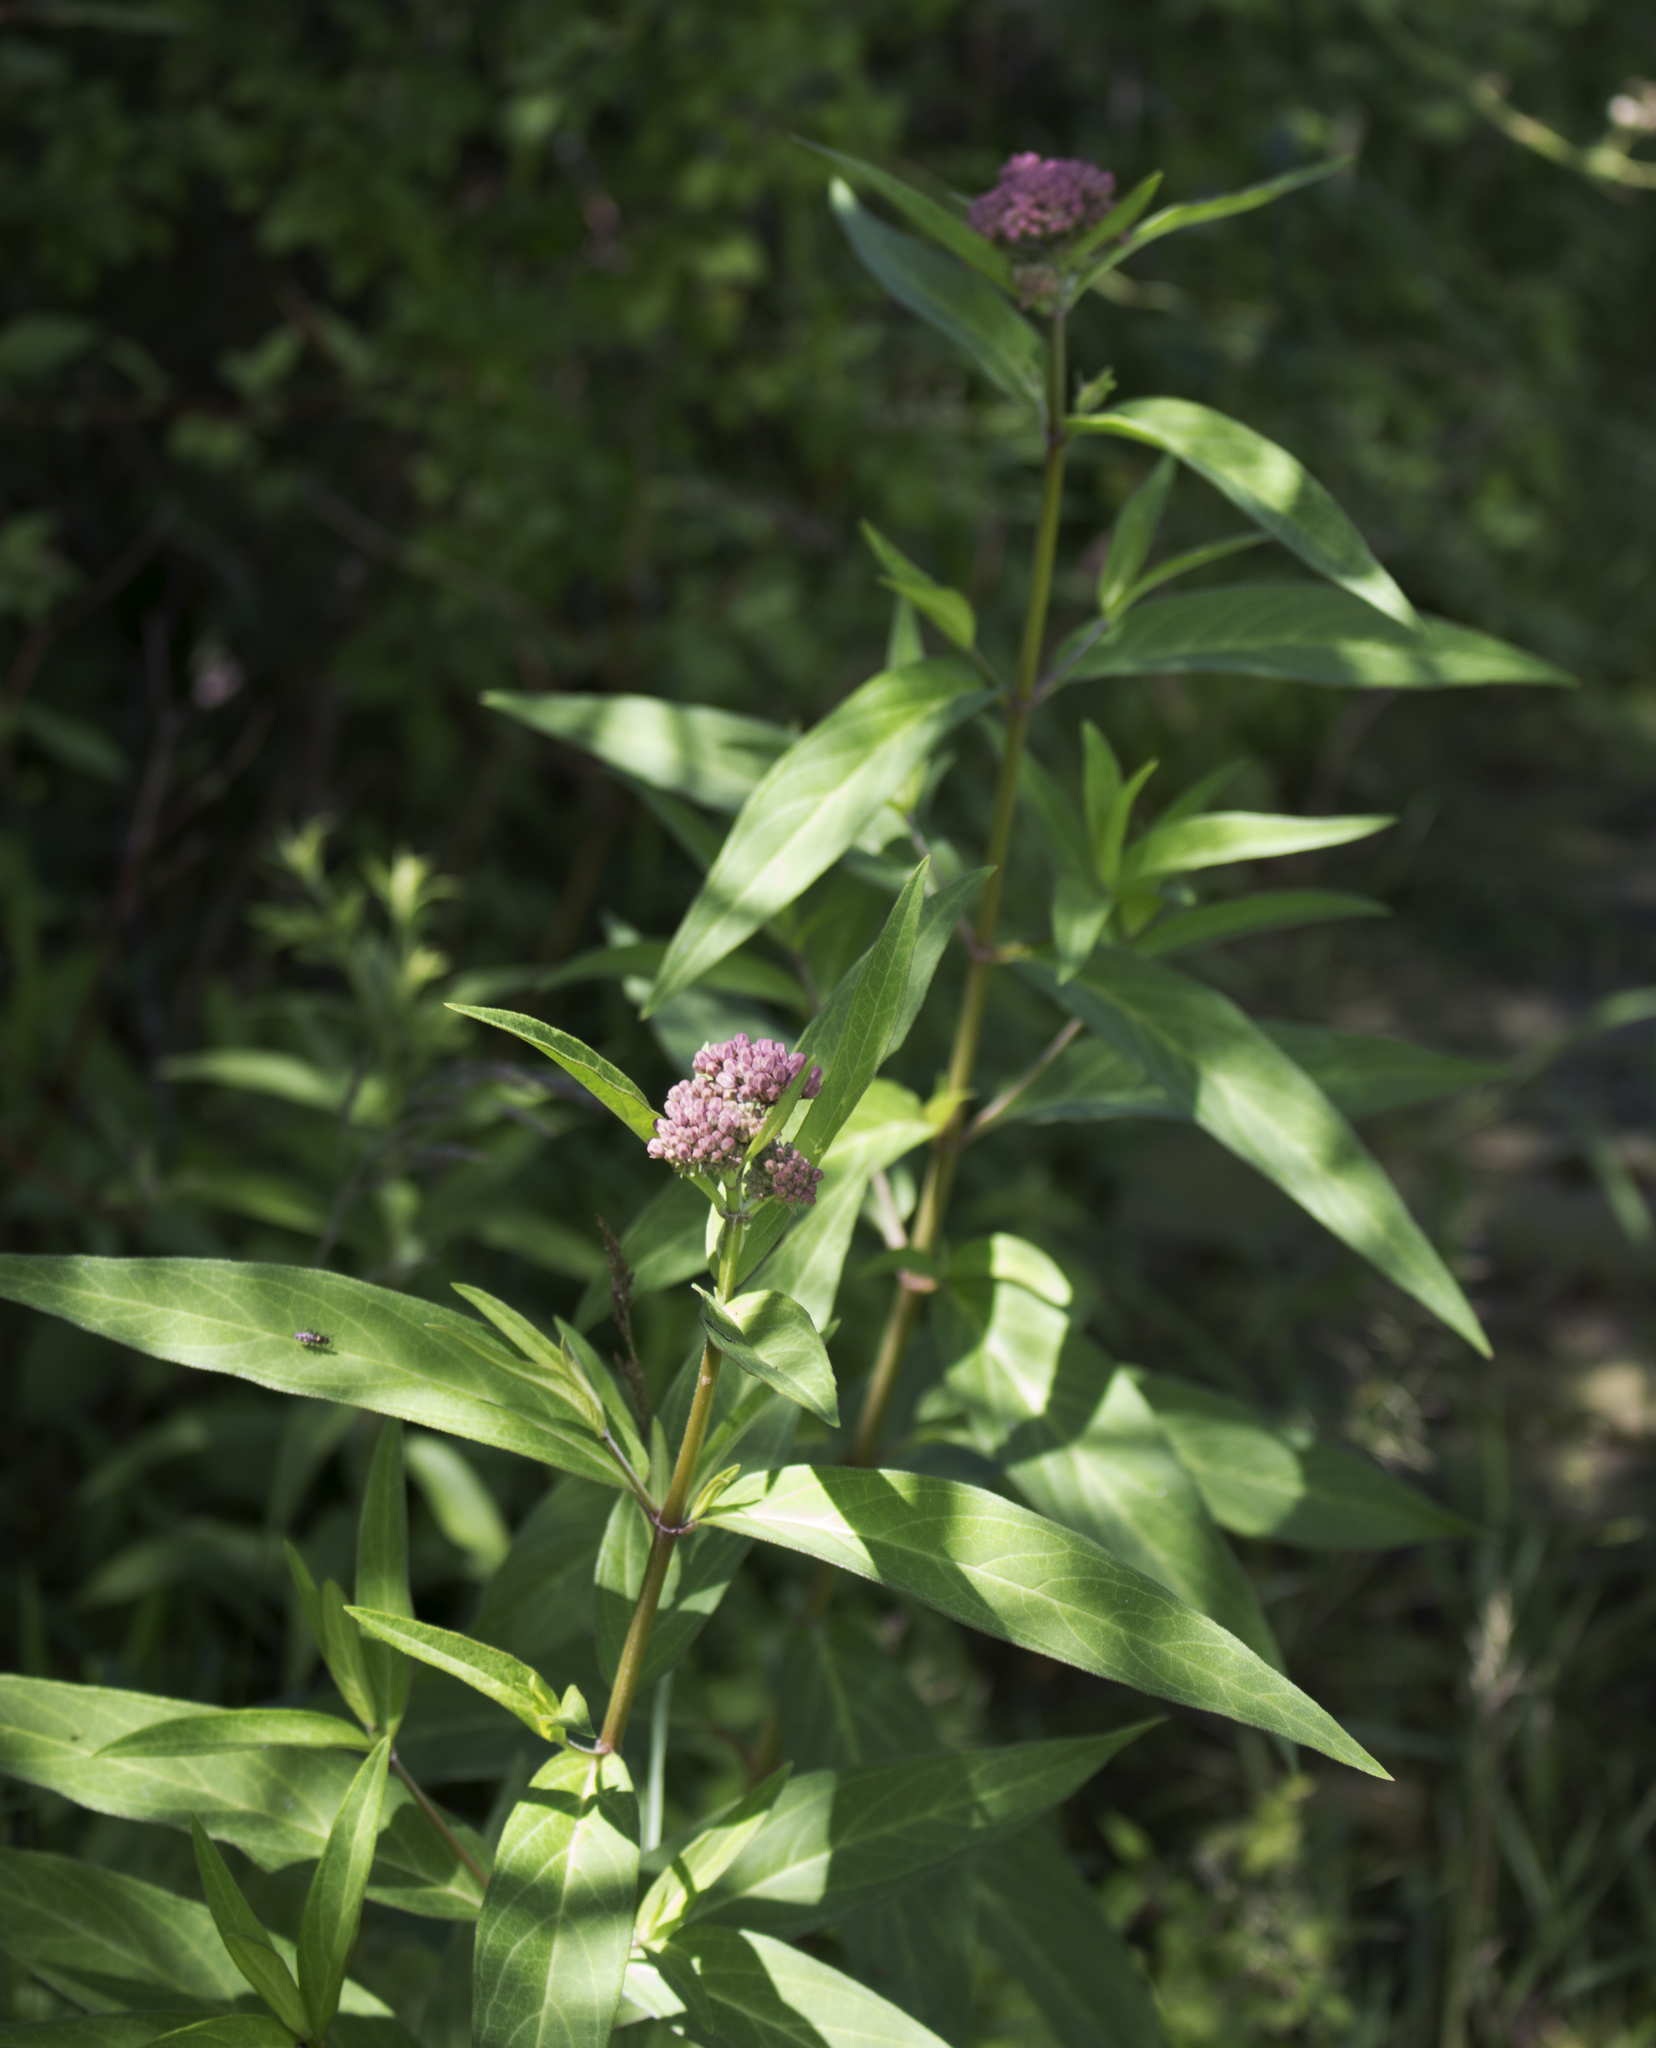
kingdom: Plantae
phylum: Tracheophyta
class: Magnoliopsida
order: Gentianales
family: Apocynaceae
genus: Asclepias
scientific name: Asclepias incarnata
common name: Swamp milkweed
